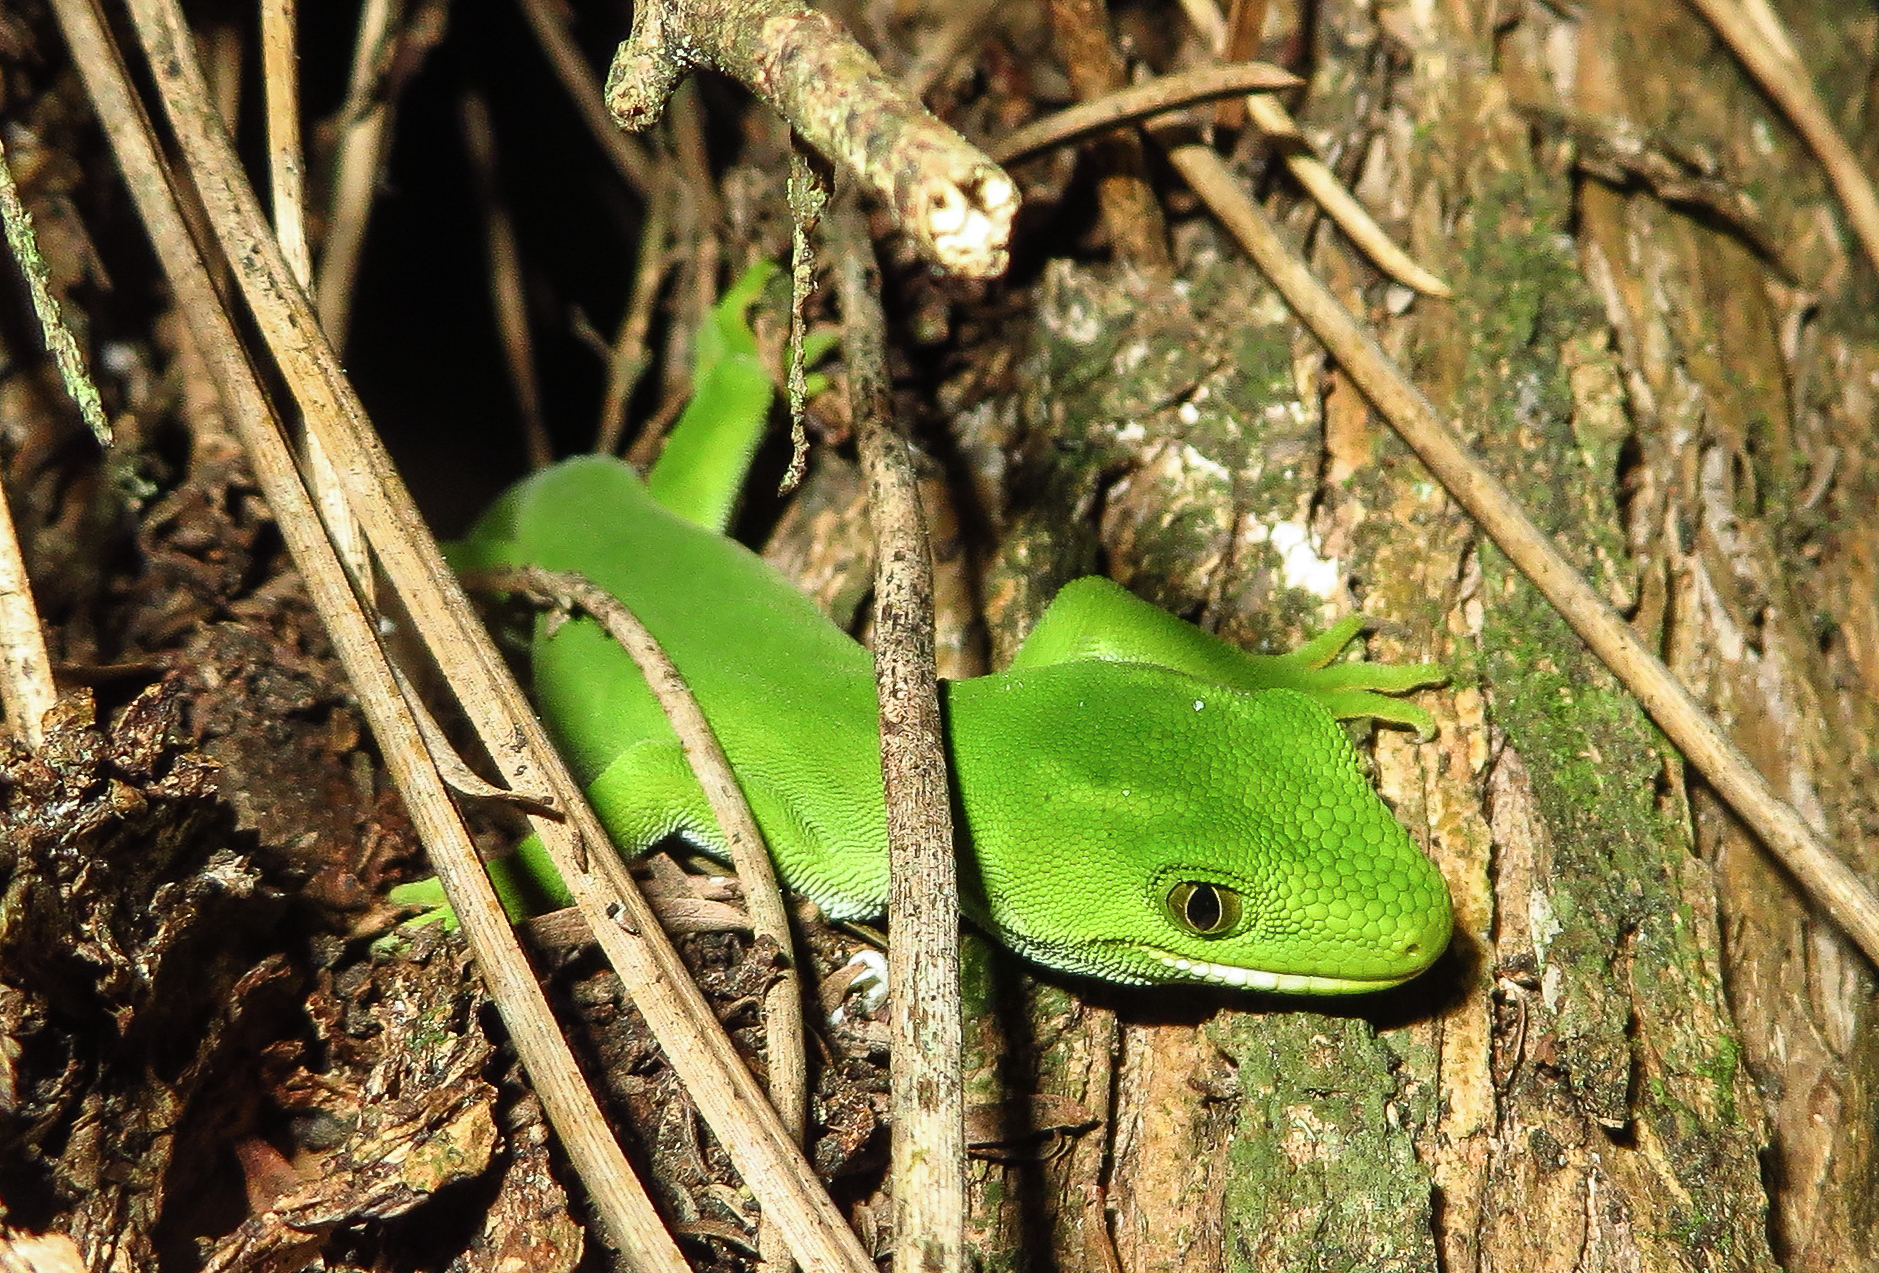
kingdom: Animalia
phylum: Chordata
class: Squamata
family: Diplodactylidae
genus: Naultinus
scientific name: Naultinus elegans
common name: Auckland green gecko
